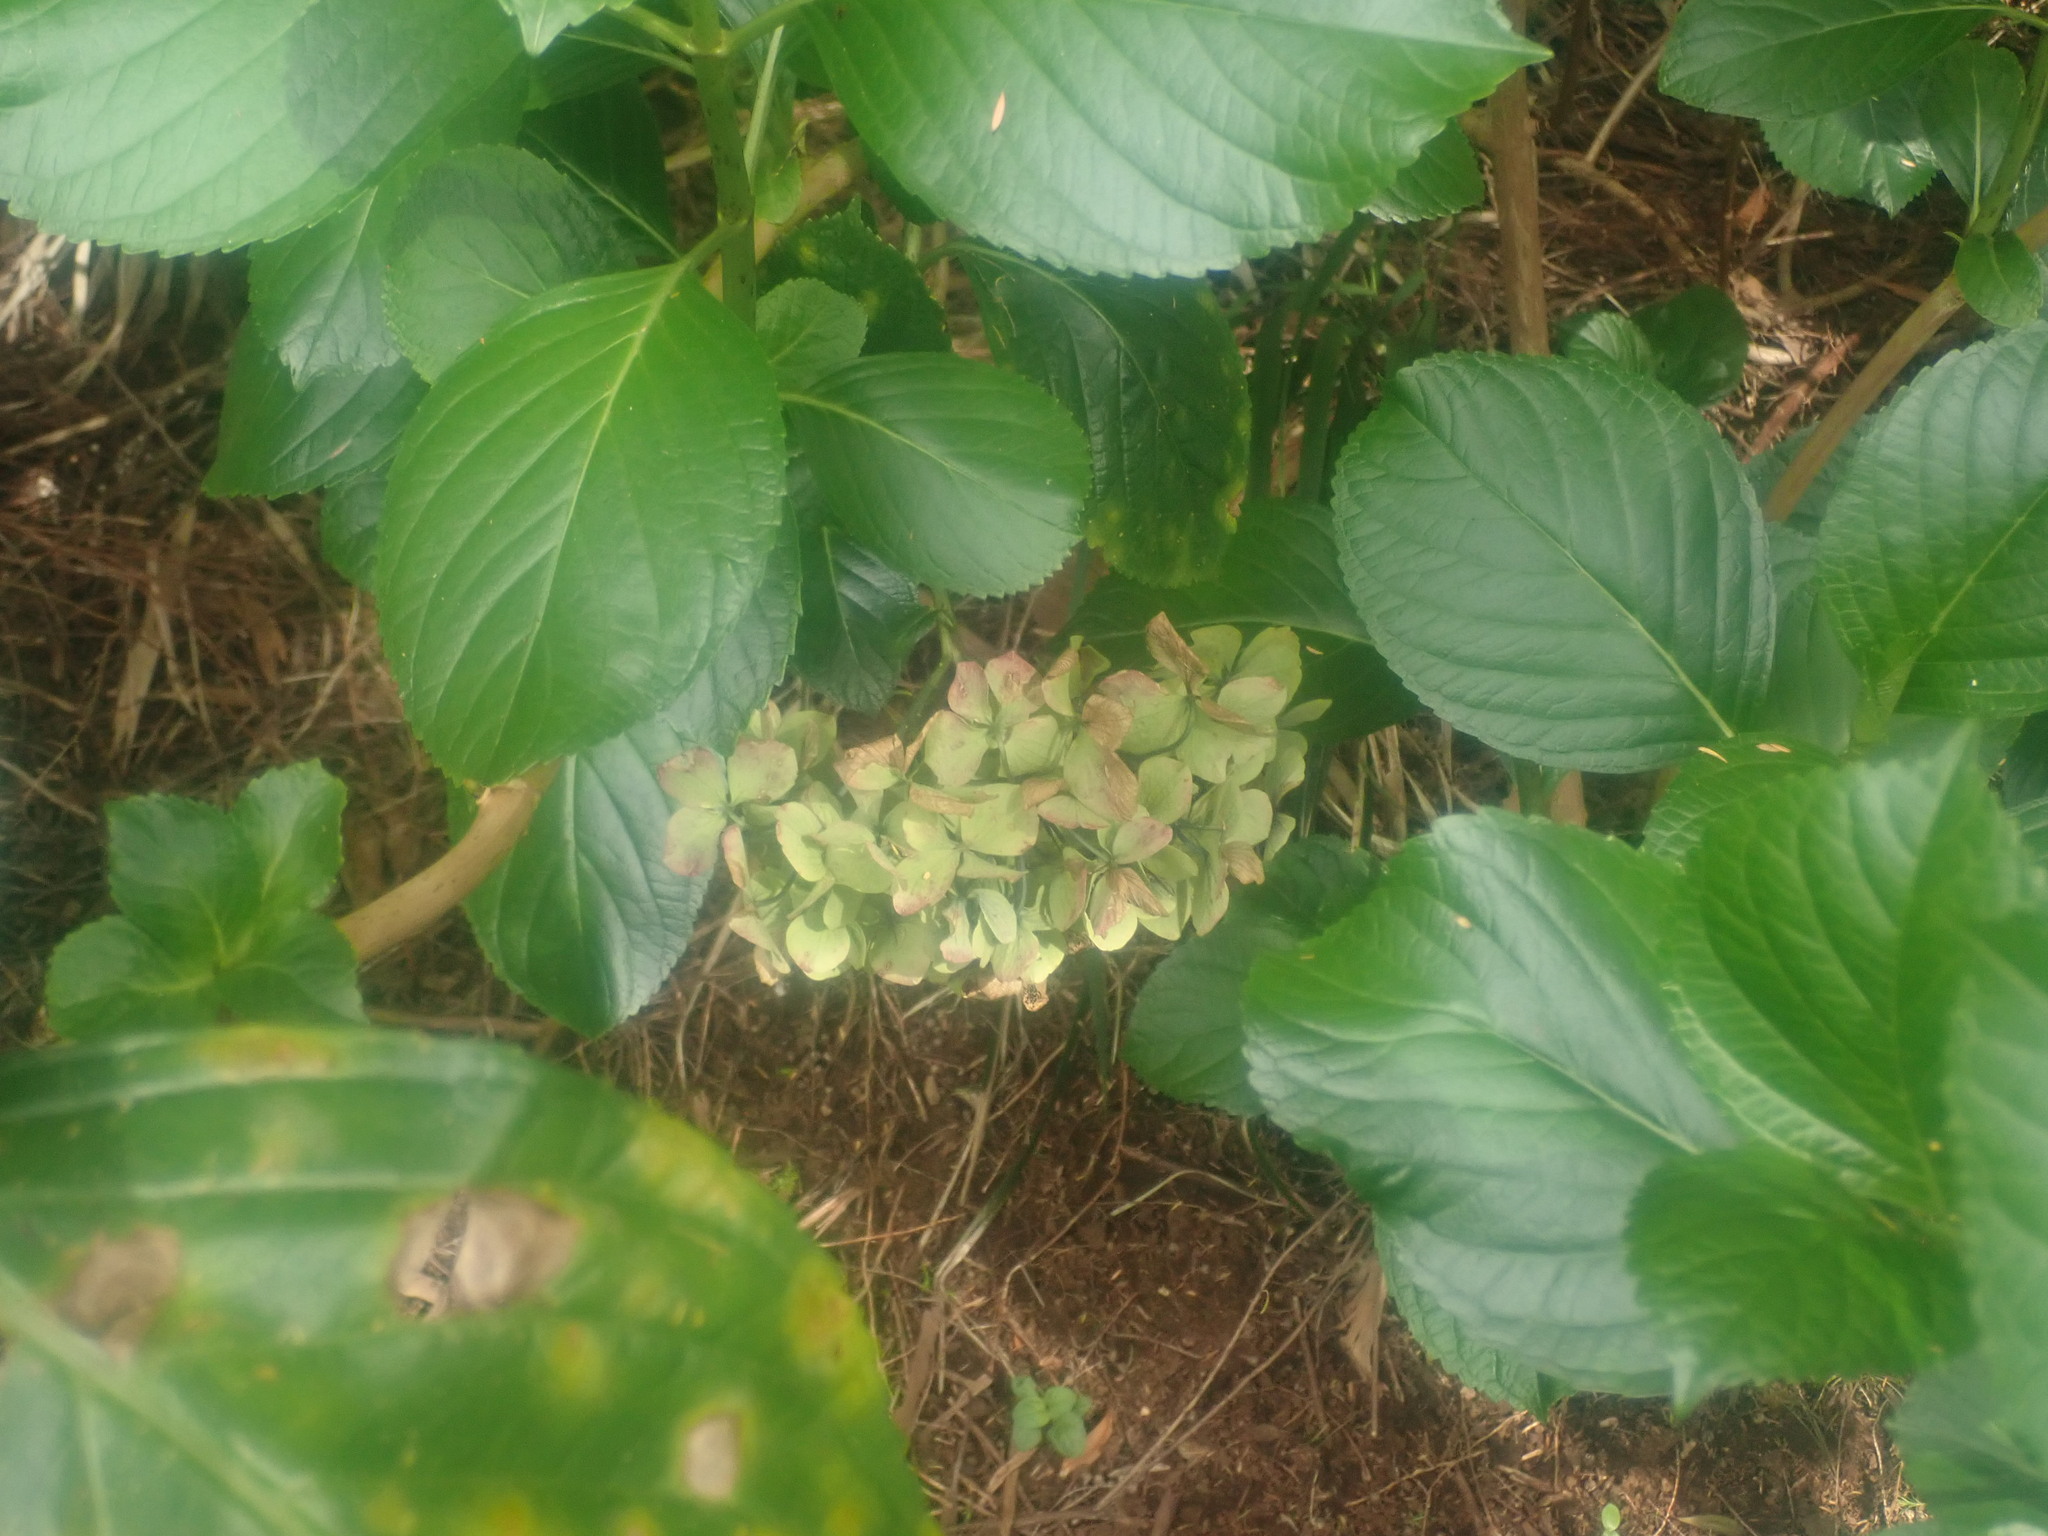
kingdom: Plantae
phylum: Tracheophyta
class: Magnoliopsida
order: Cornales
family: Hydrangeaceae
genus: Hydrangea
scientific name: Hydrangea macrophylla
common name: Hydrangea
